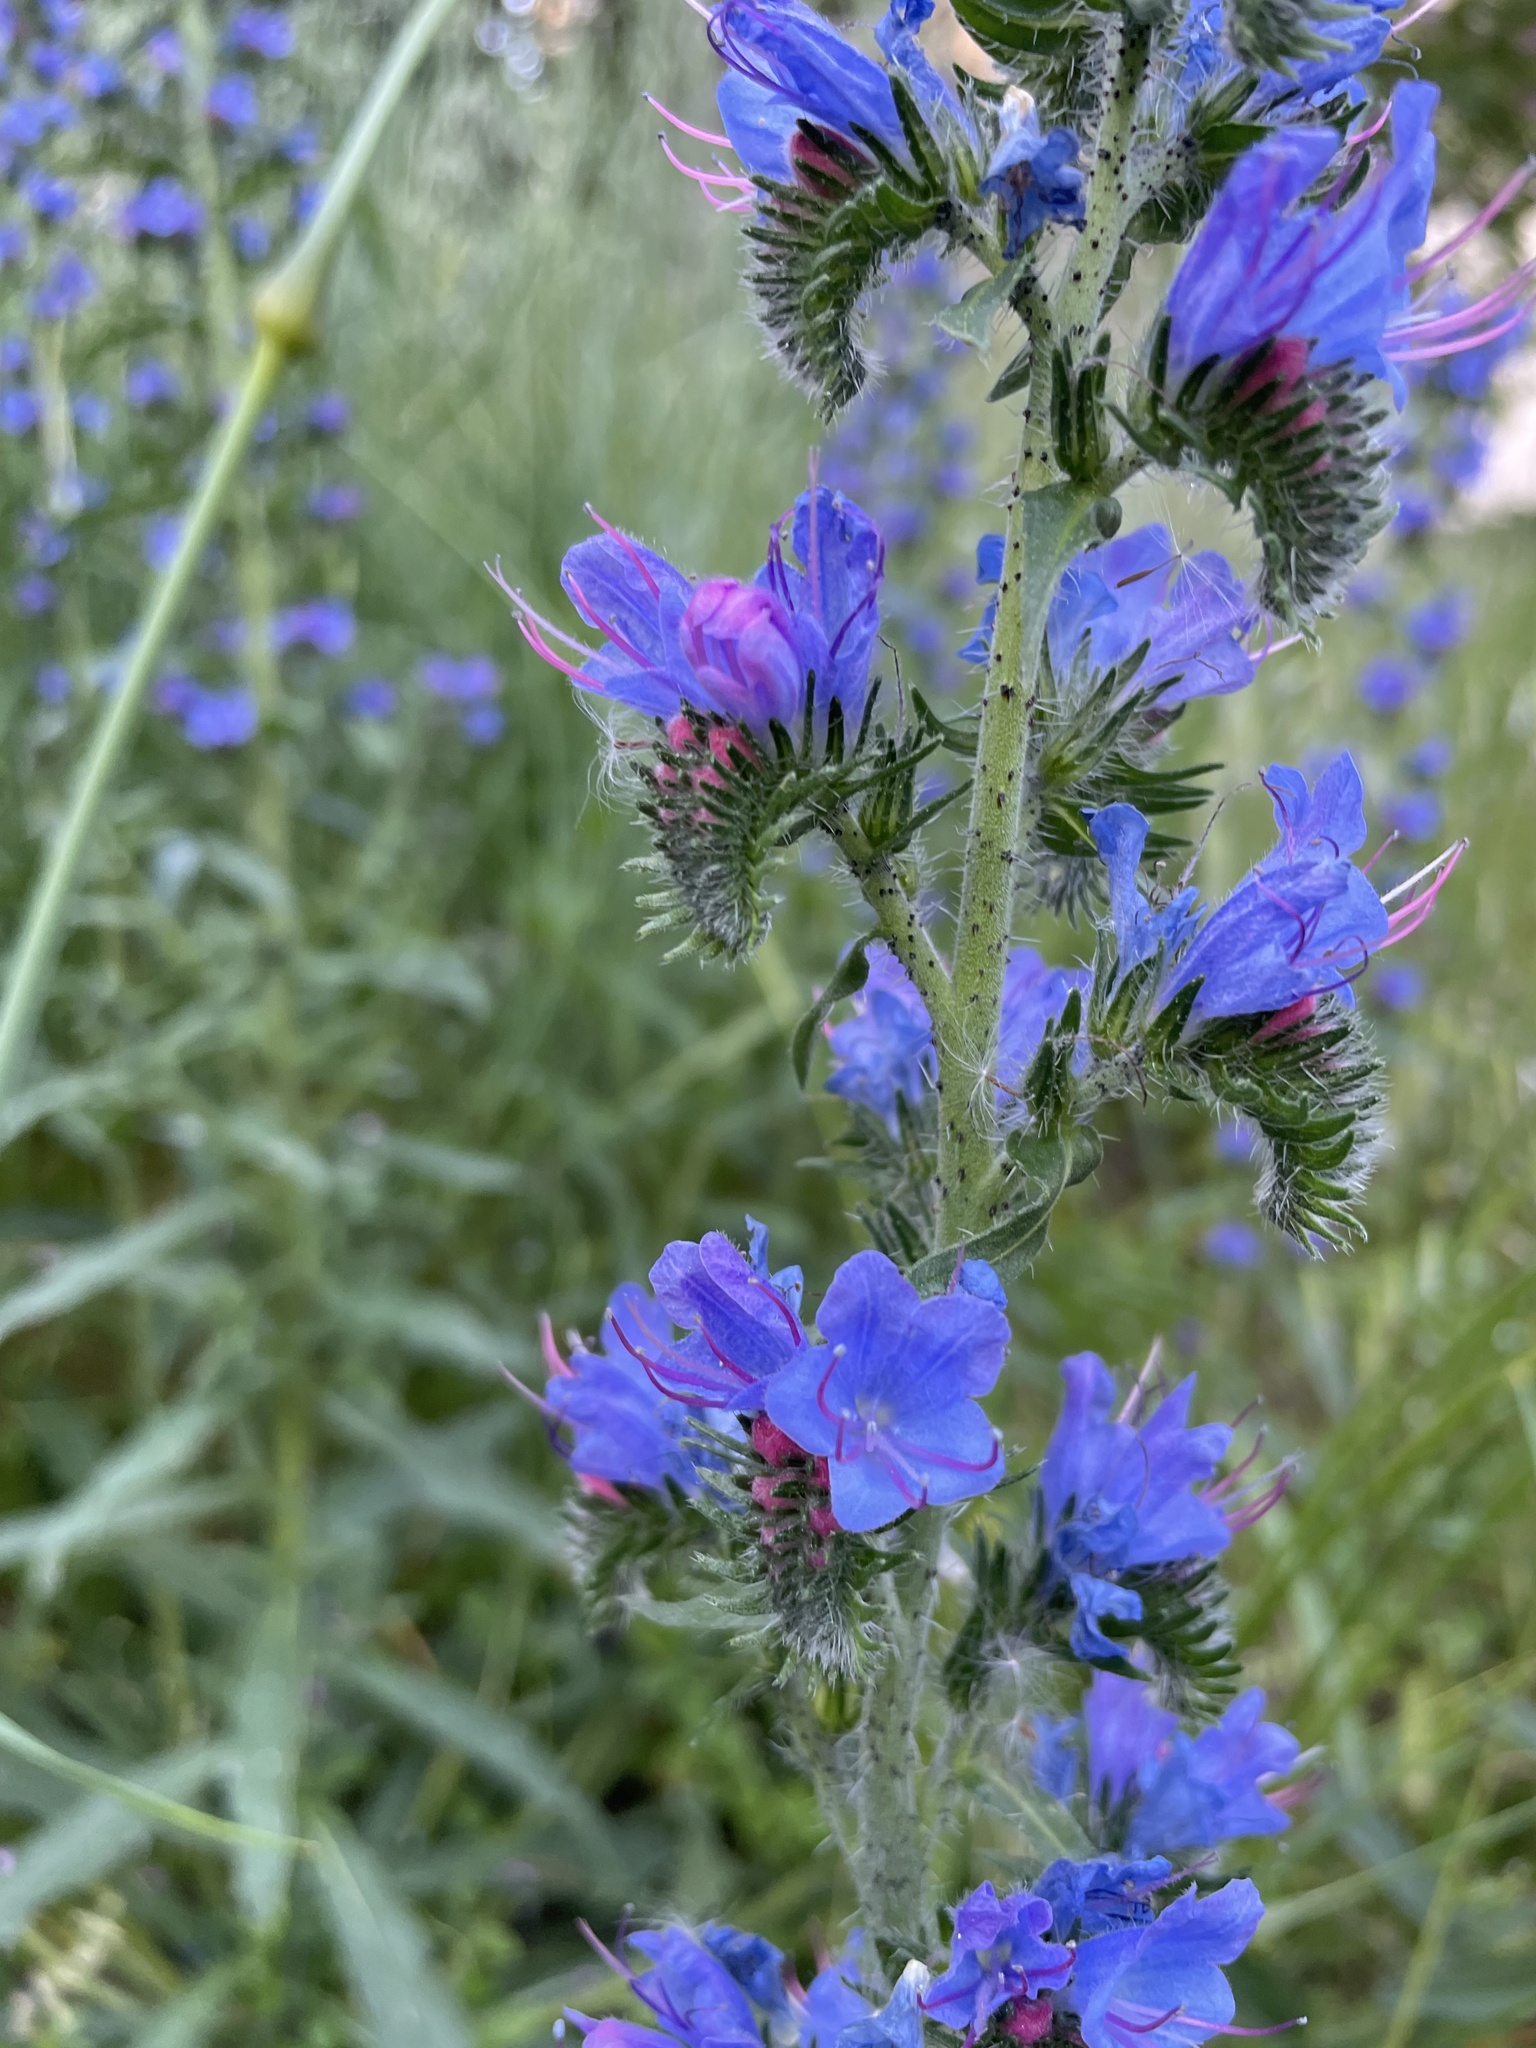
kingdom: Plantae
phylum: Tracheophyta
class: Magnoliopsida
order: Boraginales
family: Boraginaceae
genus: Echium
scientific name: Echium vulgare
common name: Common viper's bugloss
